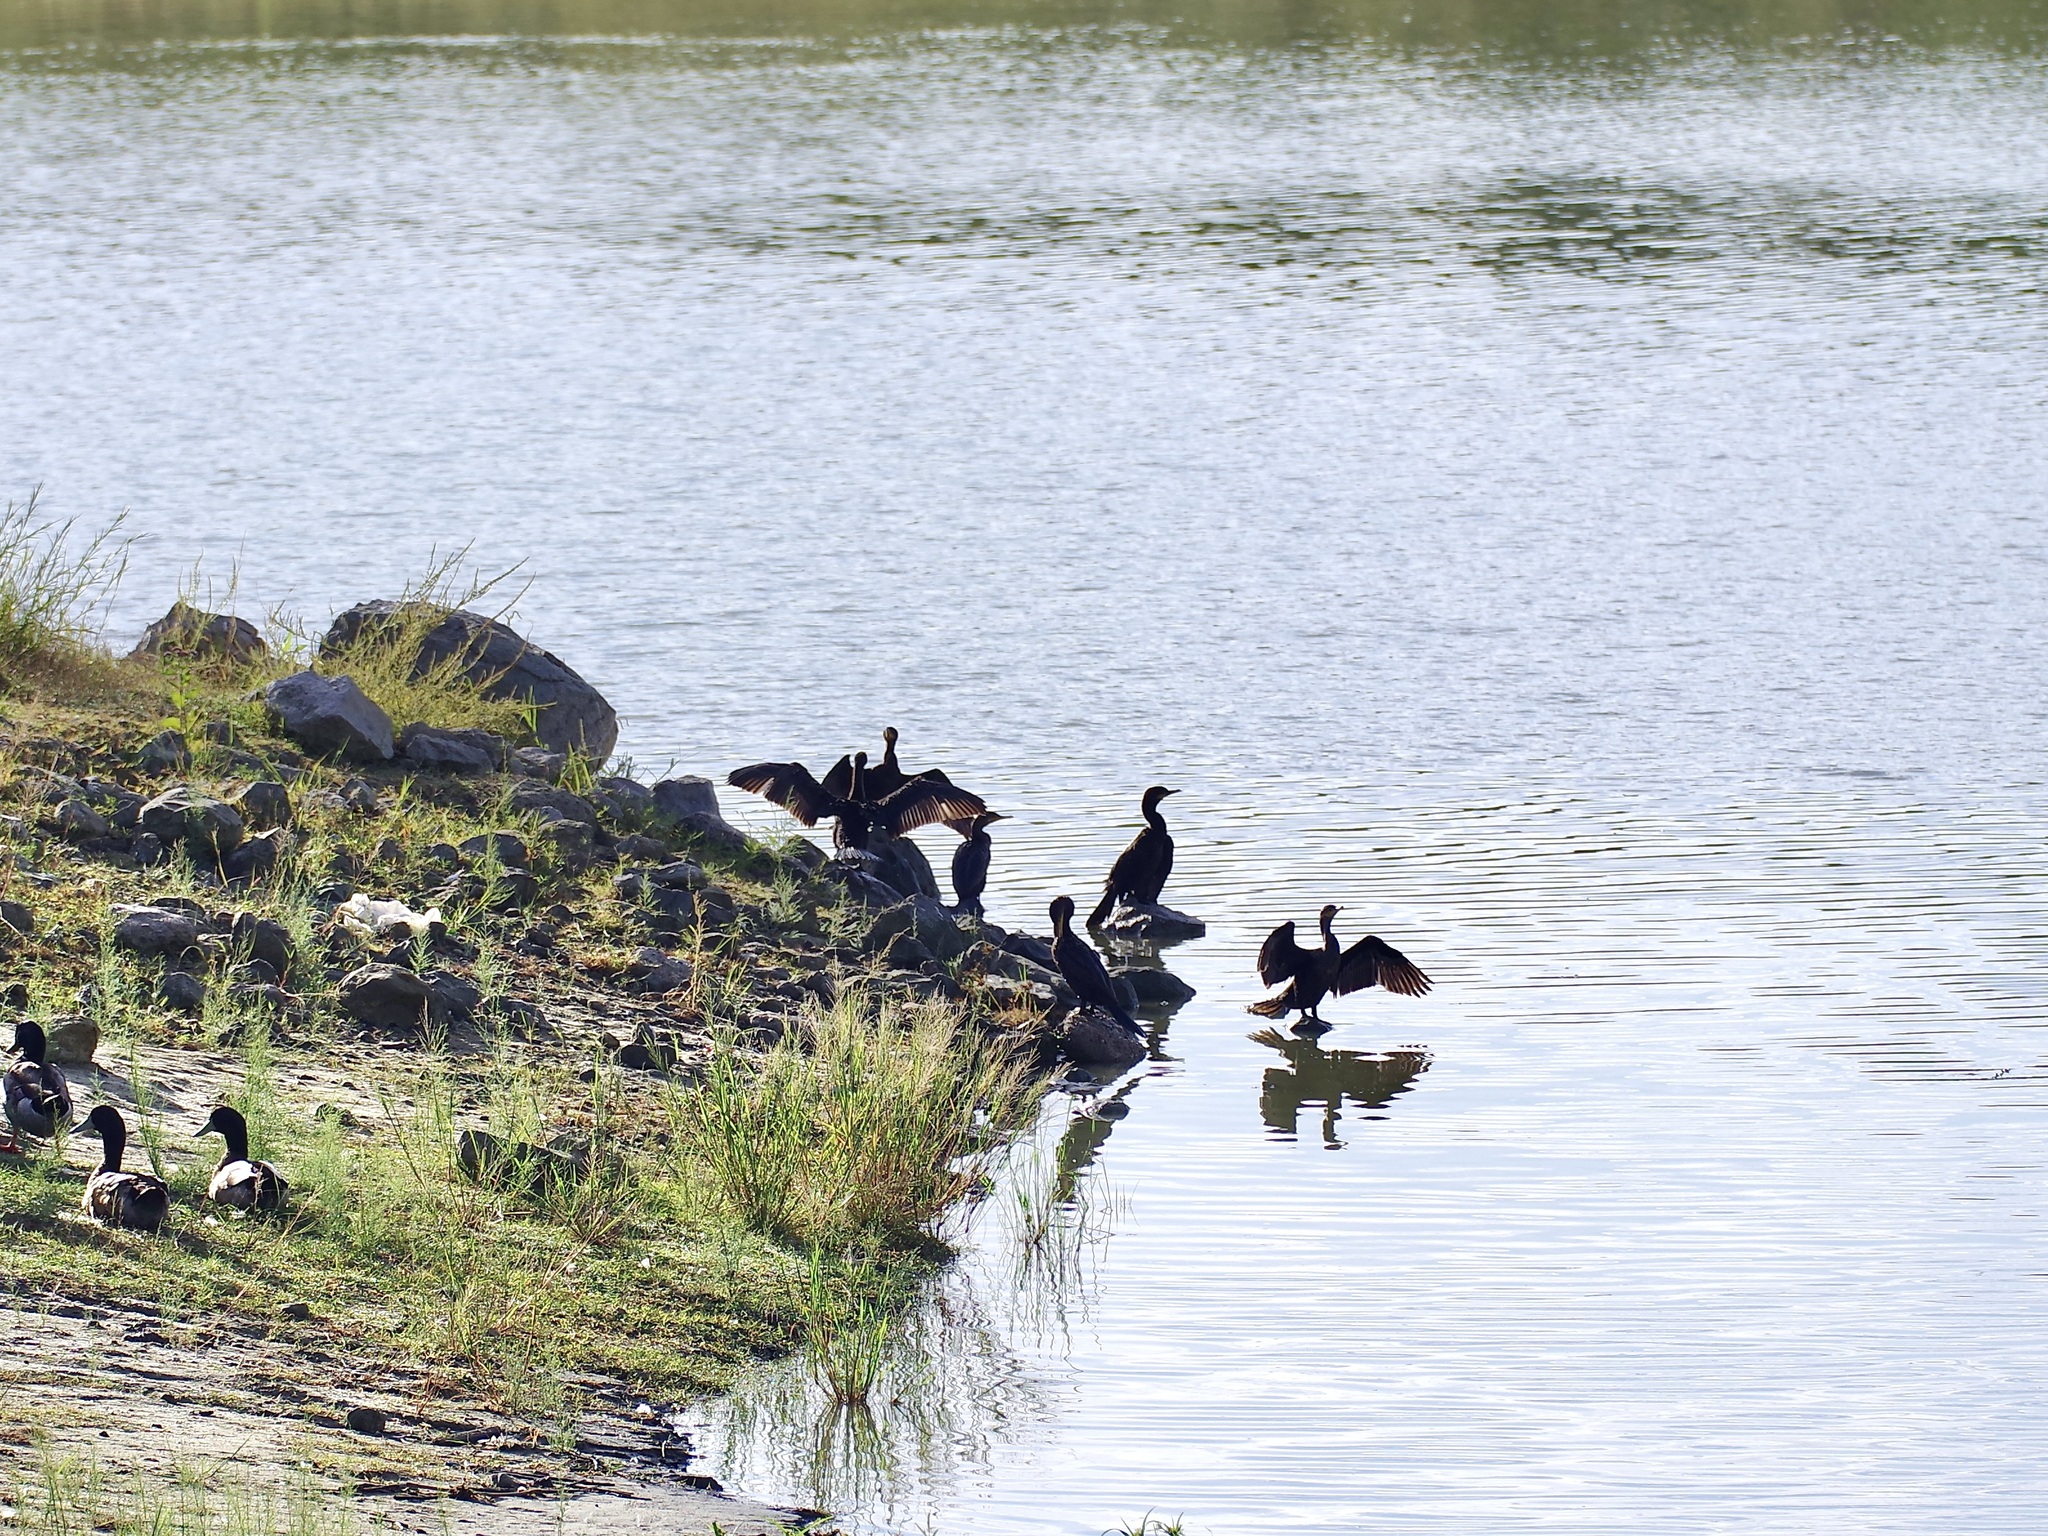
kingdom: Animalia
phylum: Chordata
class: Aves
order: Suliformes
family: Phalacrocoracidae
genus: Phalacrocorax
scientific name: Phalacrocorax brasilianus
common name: Neotropic cormorant
